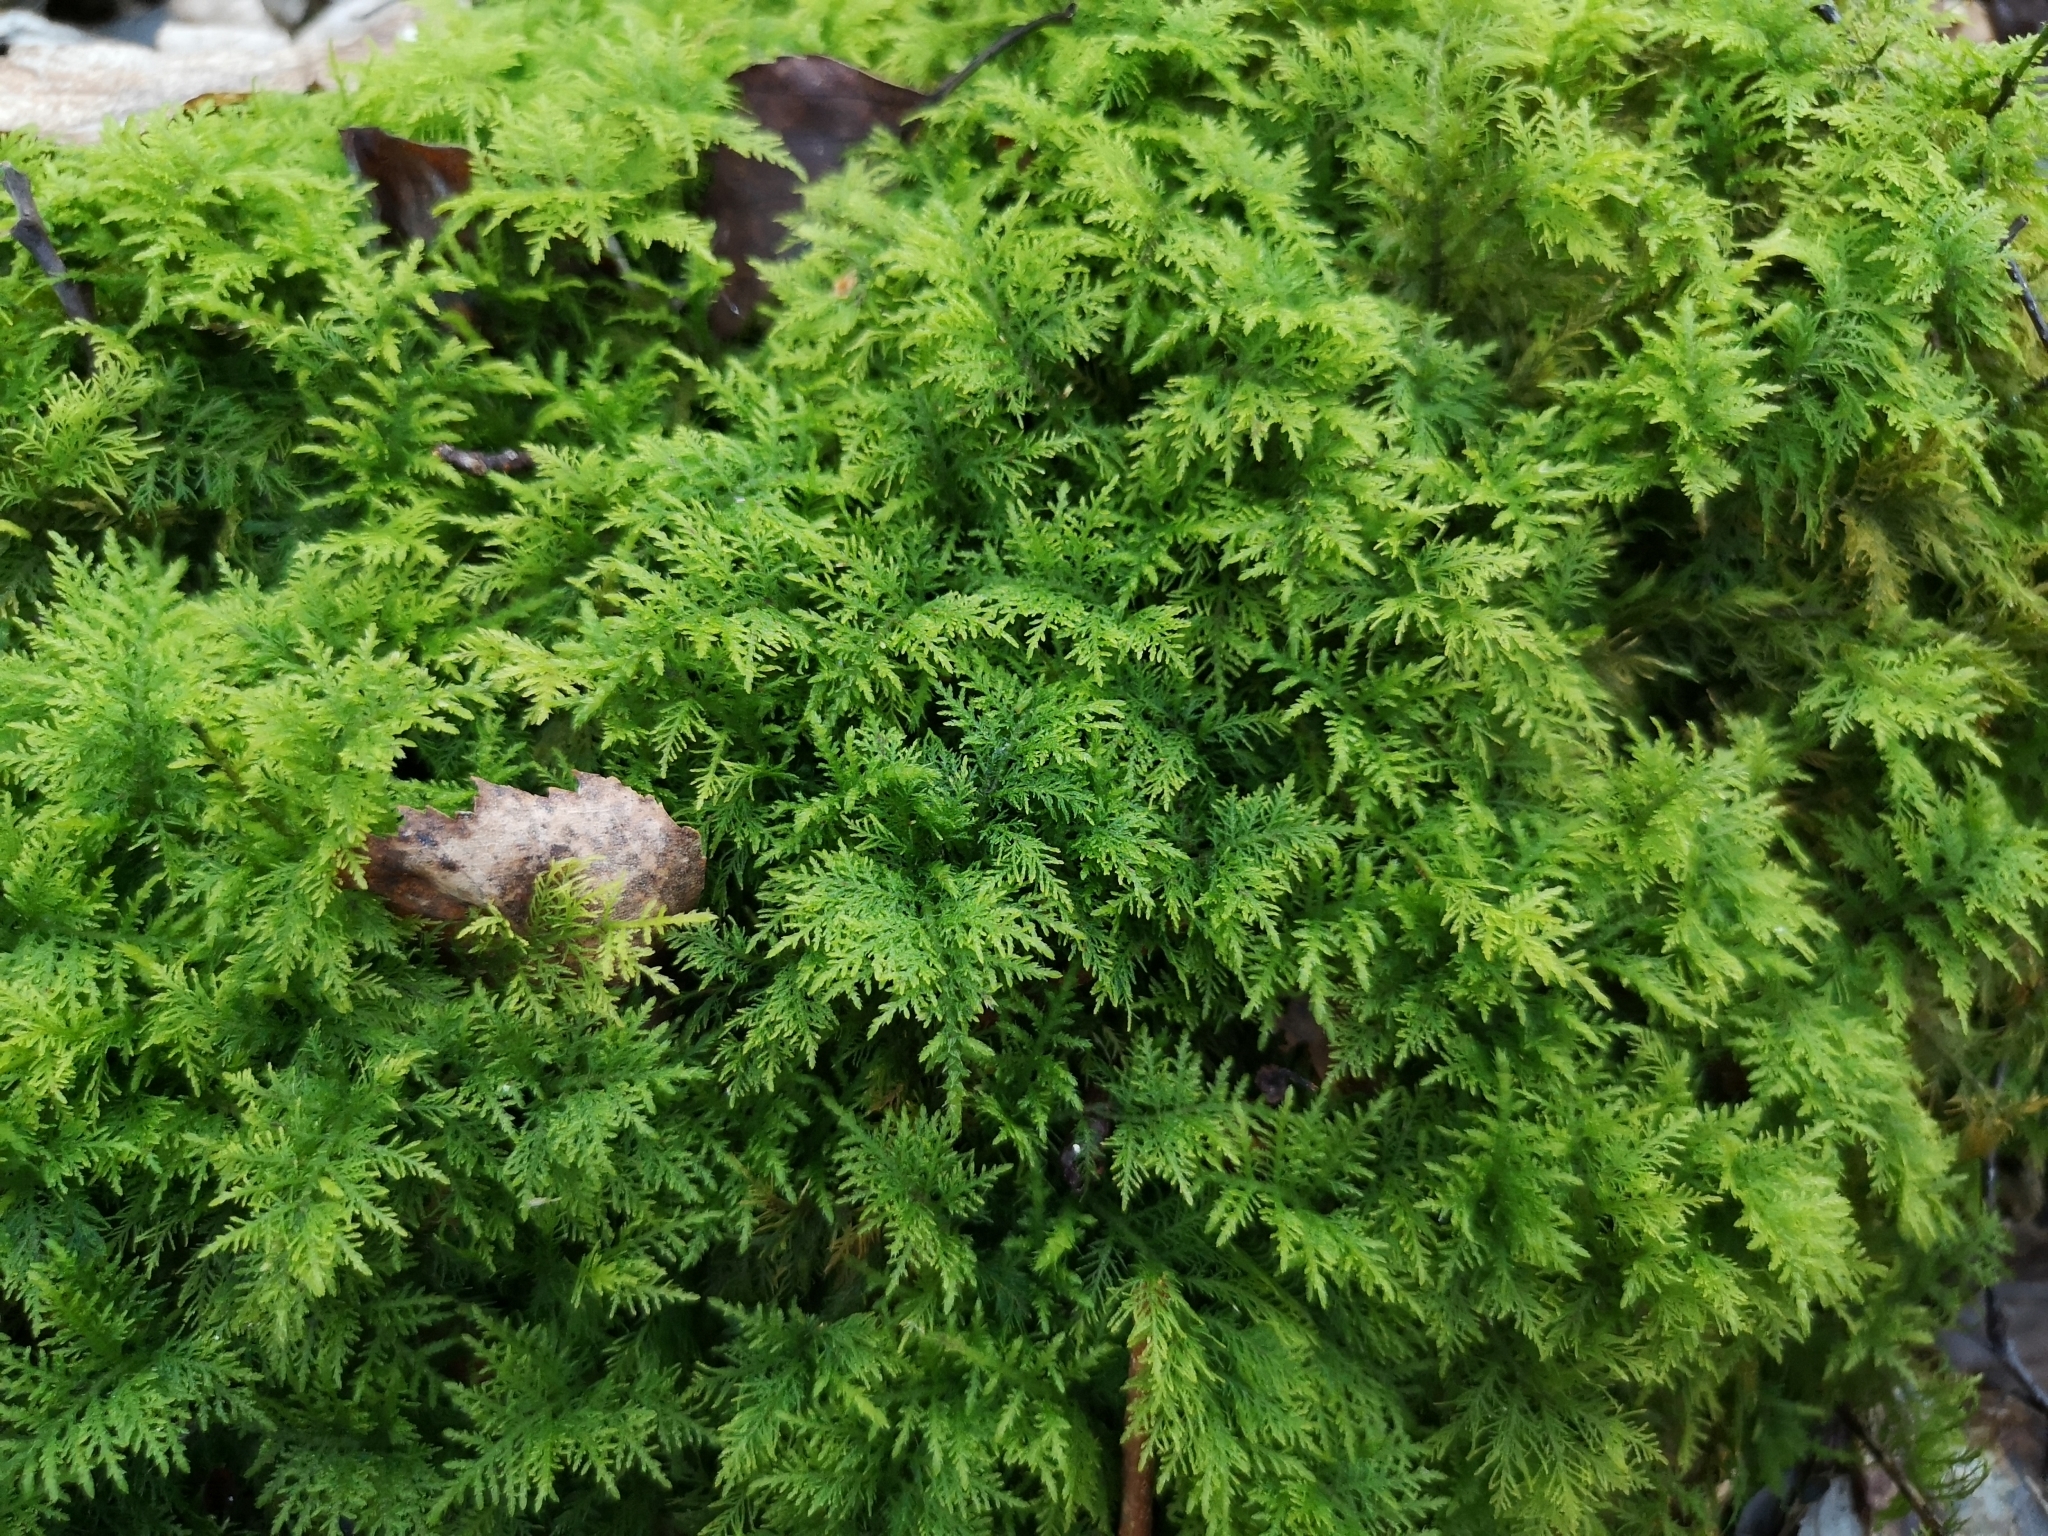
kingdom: Plantae
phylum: Bryophyta
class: Bryopsida
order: Hypnales
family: Thuidiaceae
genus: Thuidium
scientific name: Thuidium tamariscinum
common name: Common tamarisk-moss
